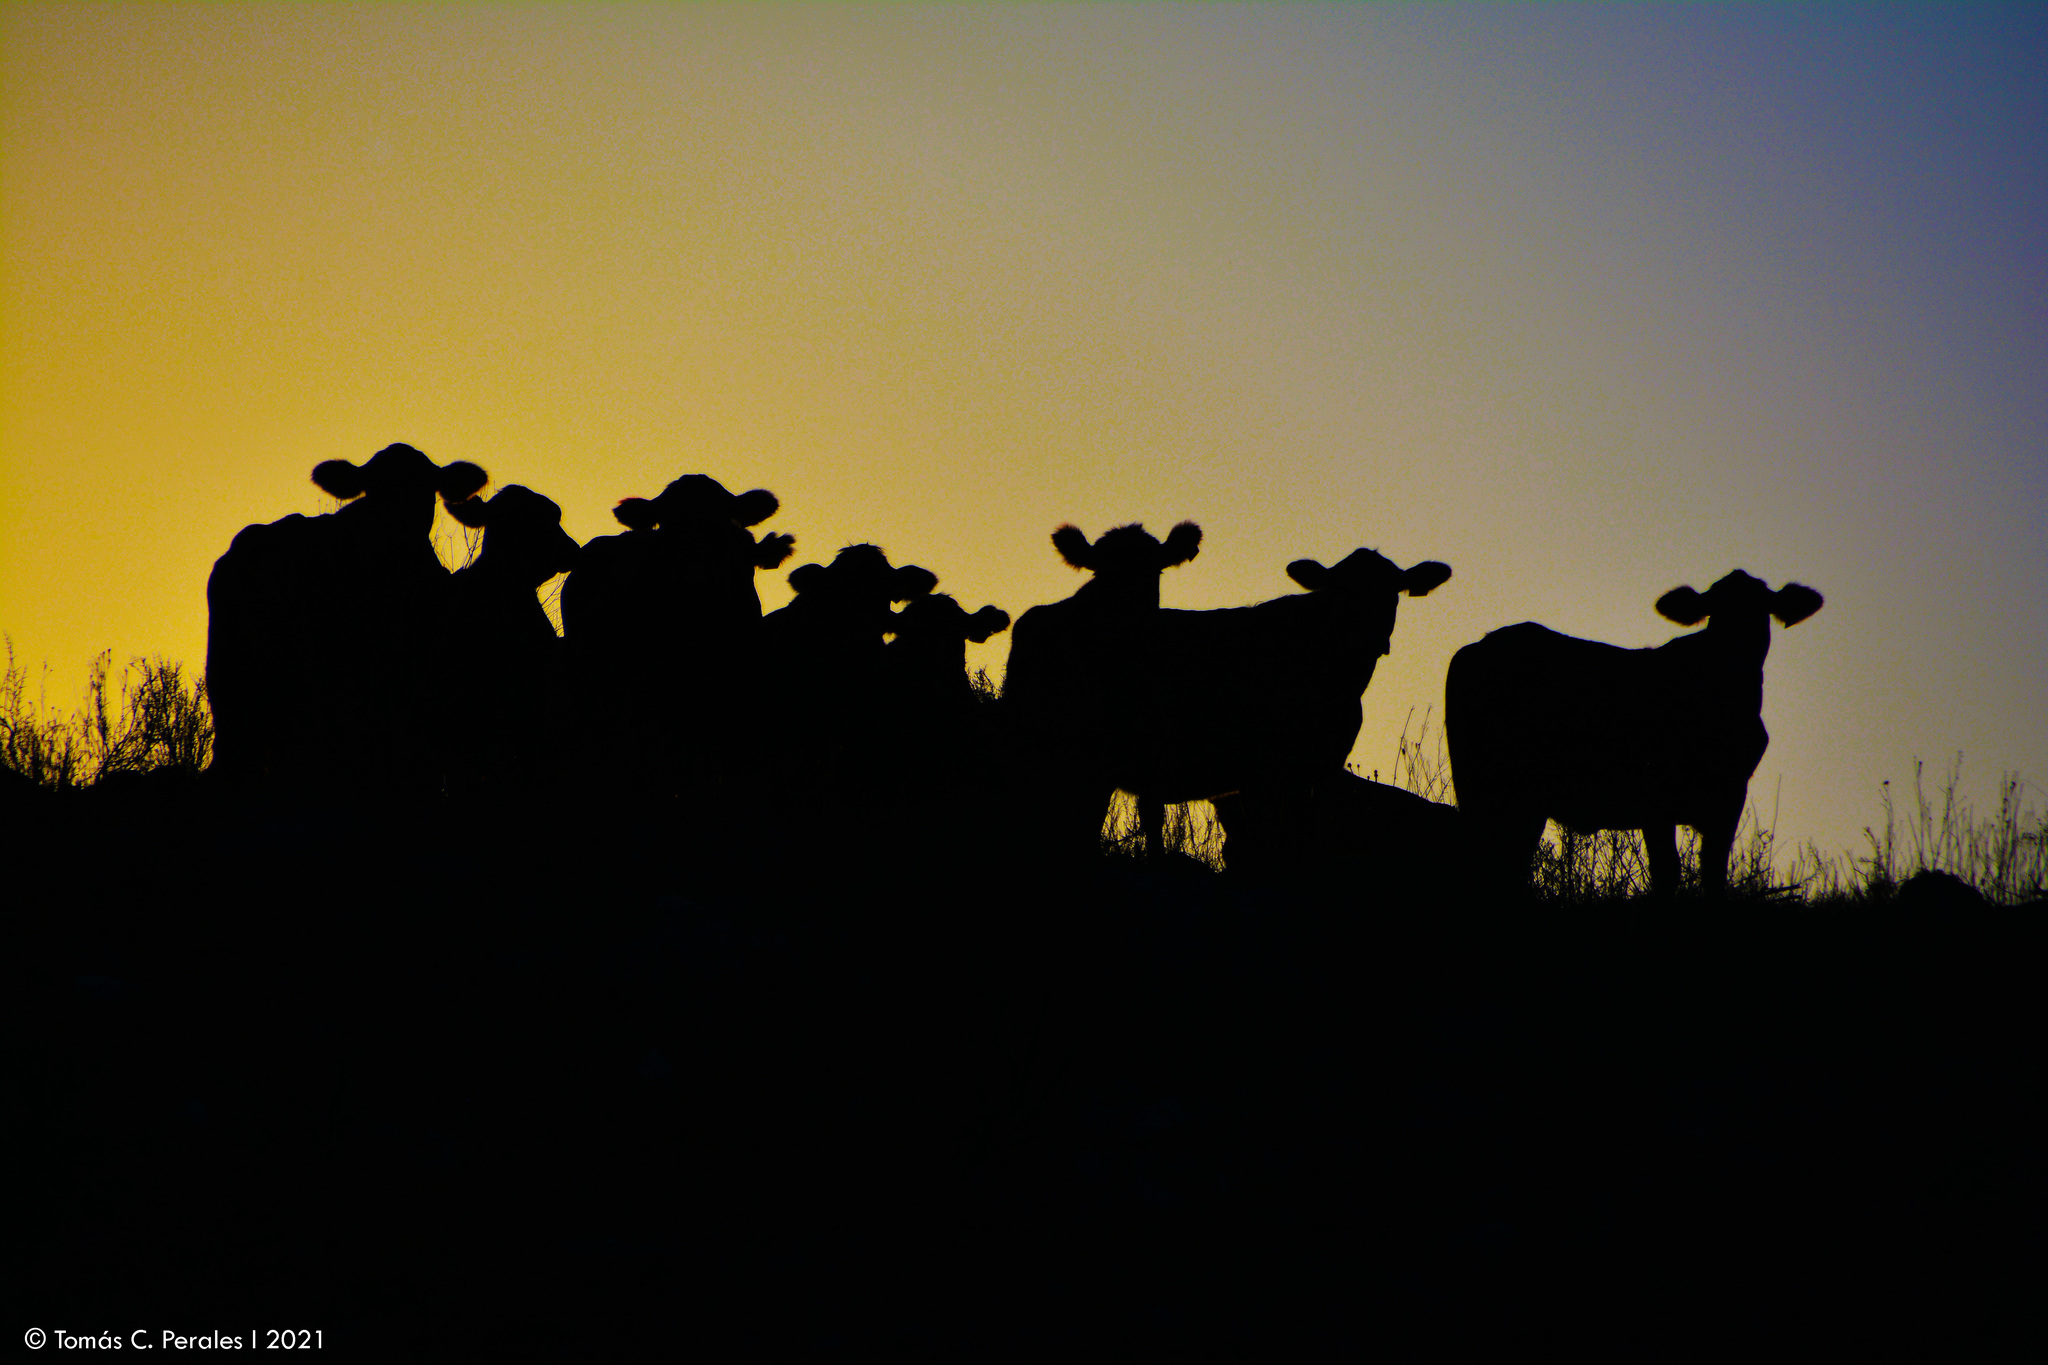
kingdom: Animalia
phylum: Chordata
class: Mammalia
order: Artiodactyla
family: Bovidae
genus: Bos
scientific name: Bos taurus
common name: Domesticated cattle
